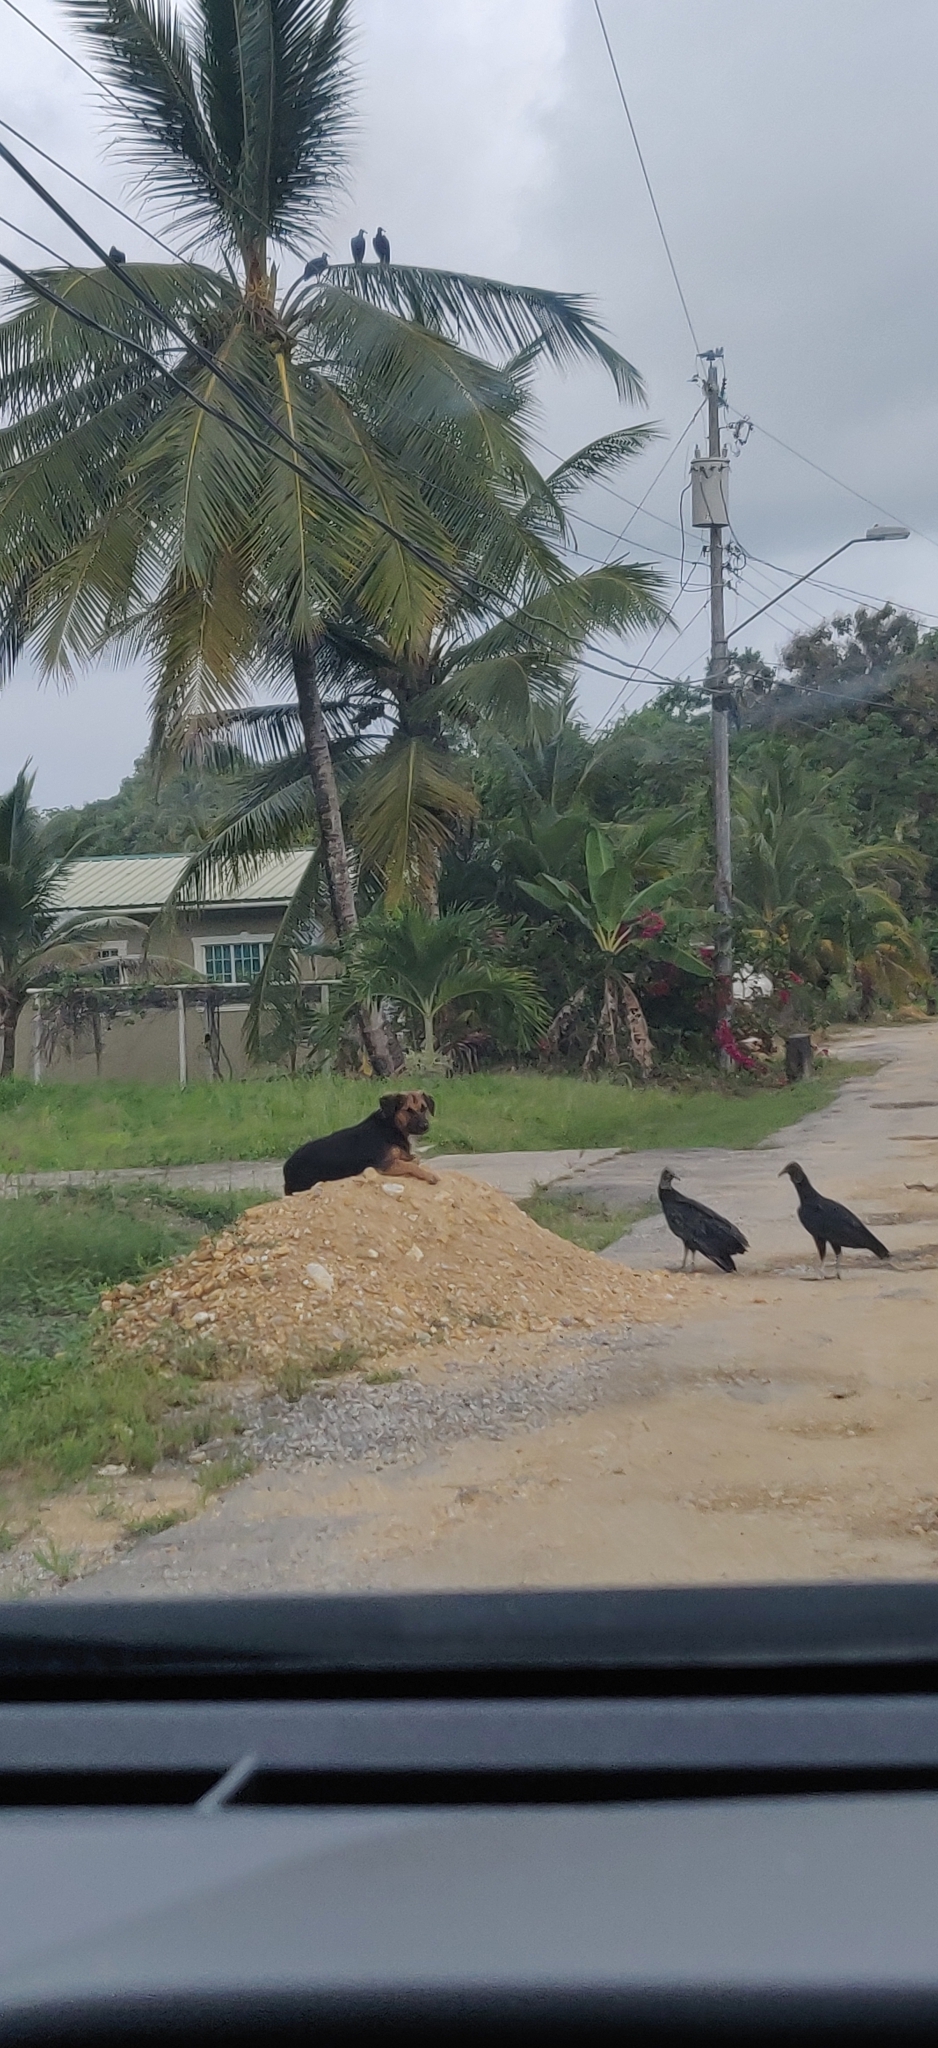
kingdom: Animalia
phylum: Chordata
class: Aves
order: Accipitriformes
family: Cathartidae
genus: Coragyps
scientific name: Coragyps atratus
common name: Black vulture
